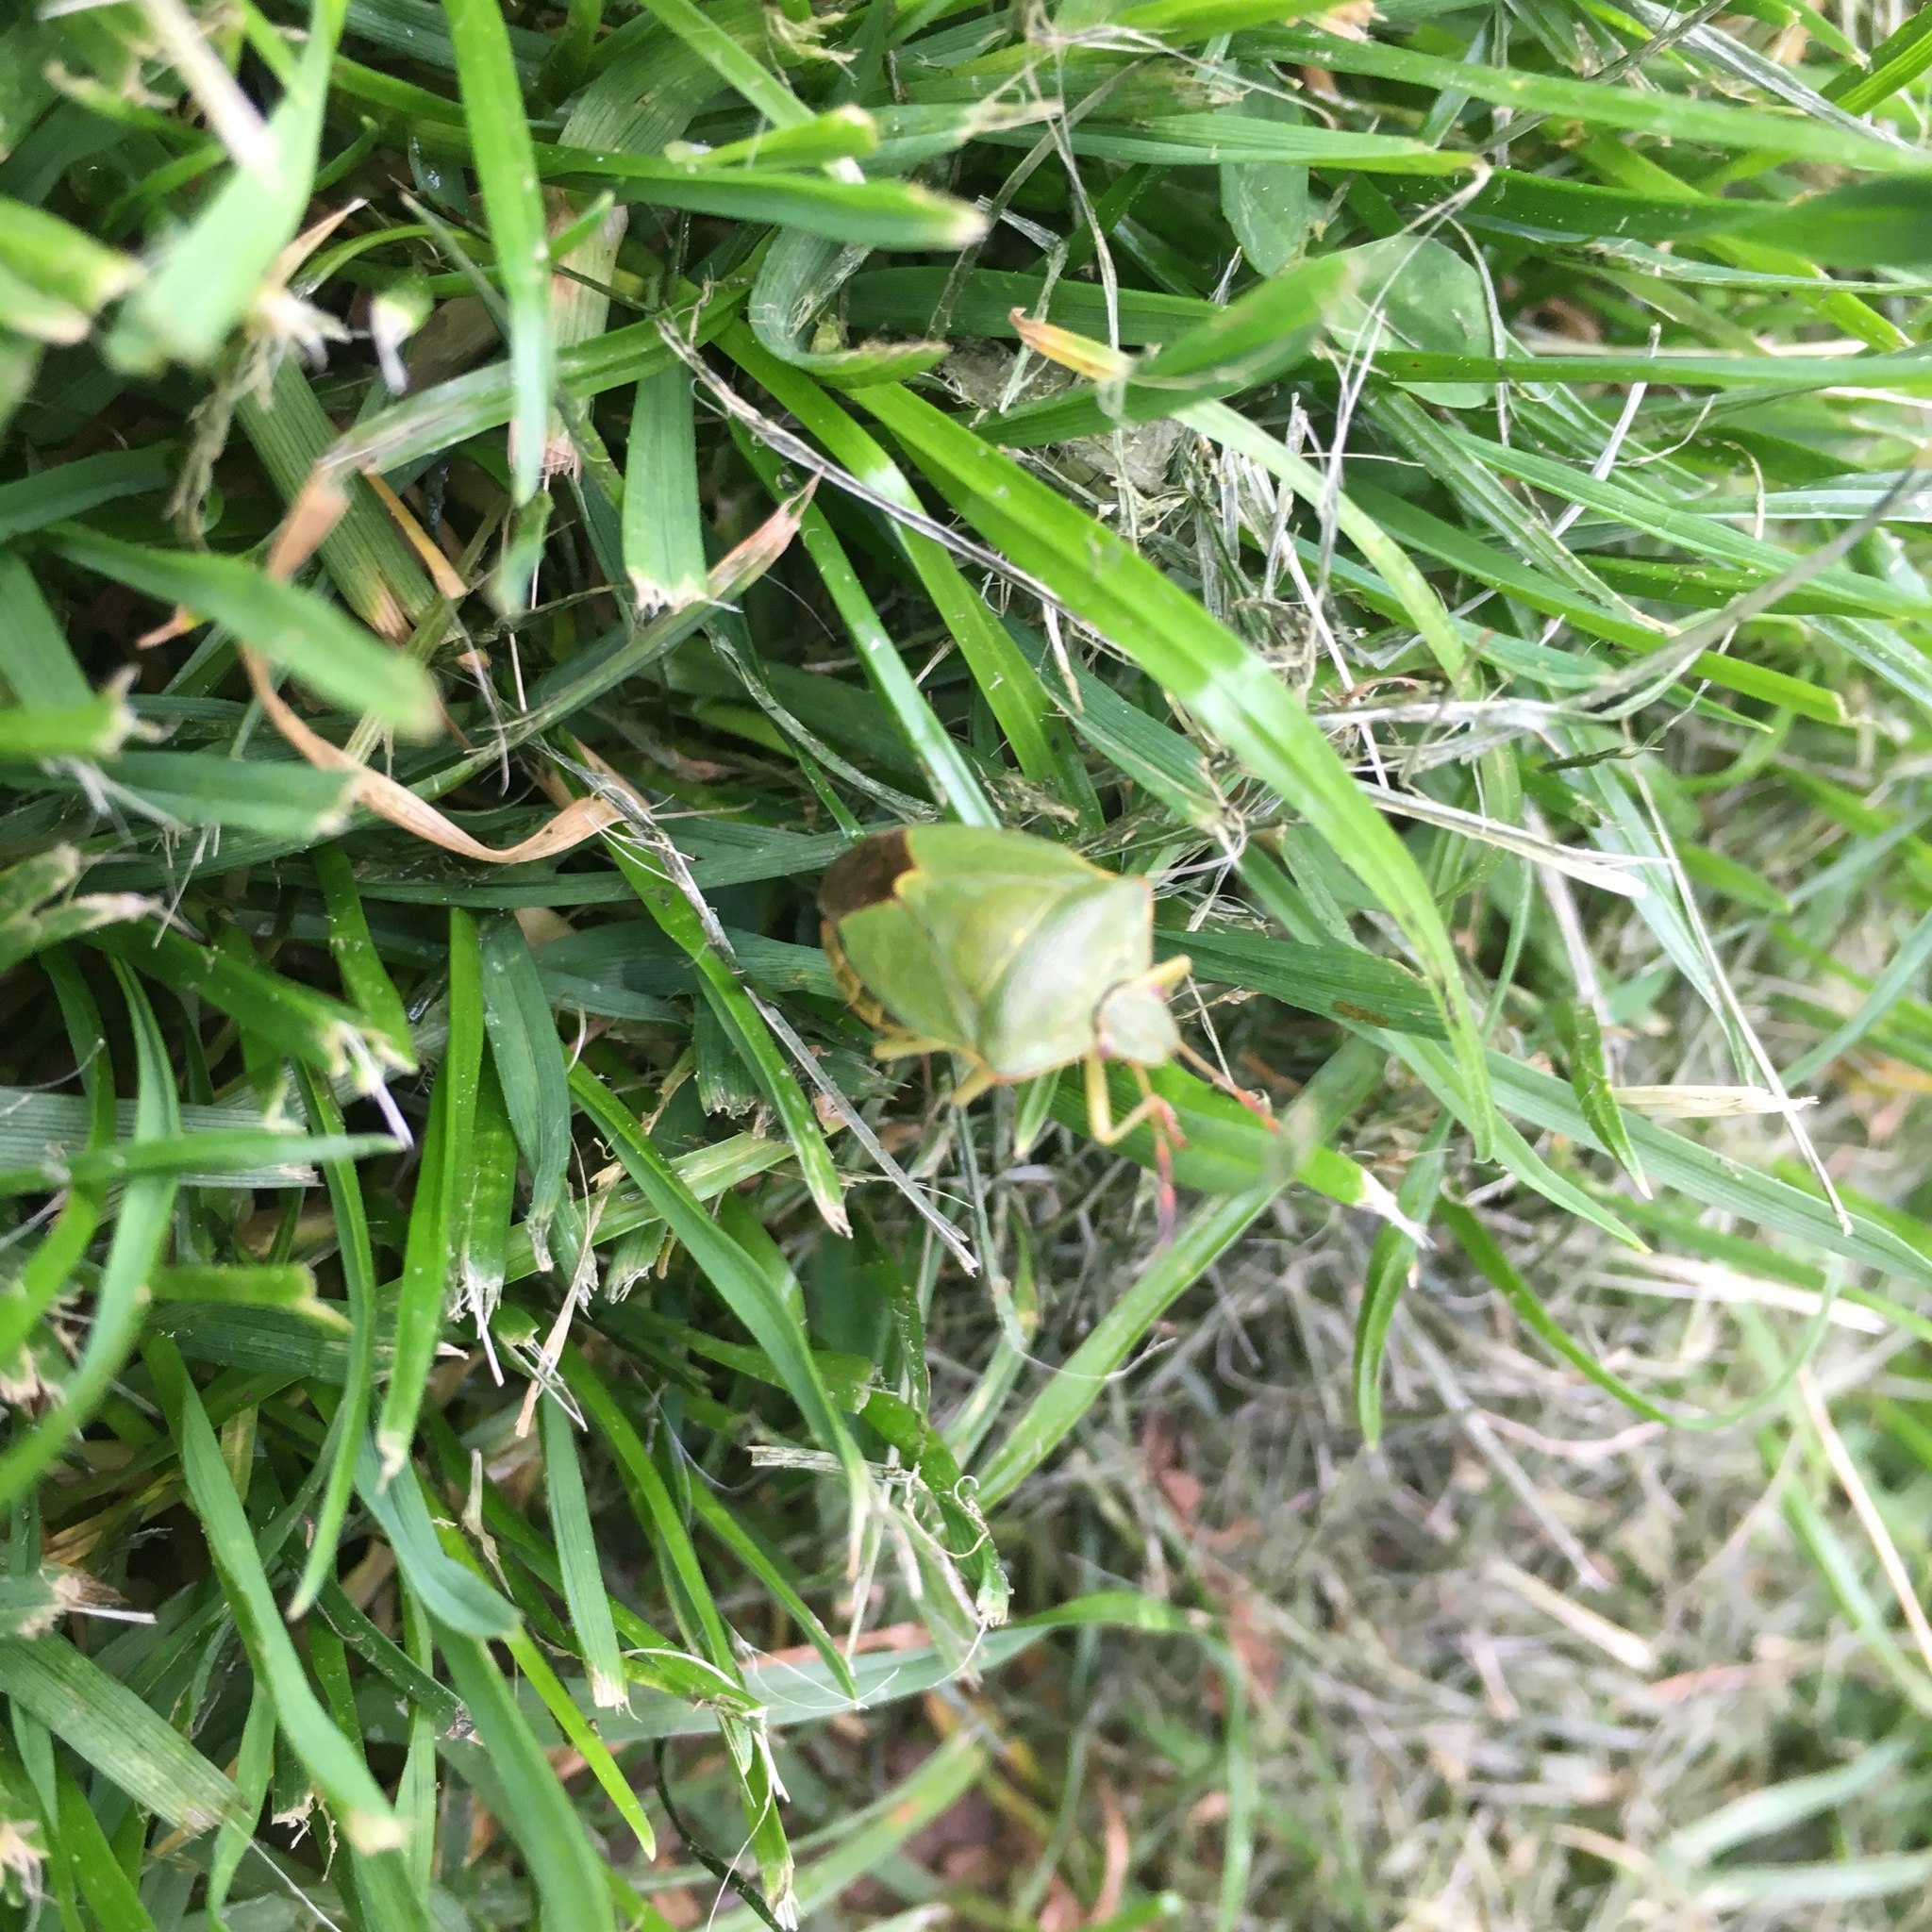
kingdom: Animalia
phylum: Arthropoda
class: Insecta
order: Hemiptera
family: Pentatomidae
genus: Palomena
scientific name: Palomena prasina
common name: Green shieldbug
